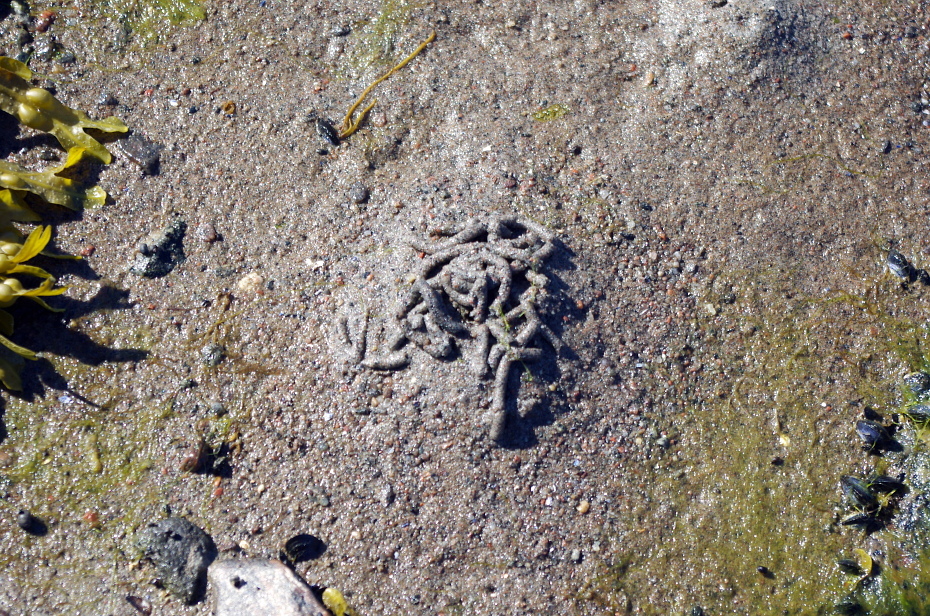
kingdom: Animalia
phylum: Annelida
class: Polychaeta
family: Arenicolidae
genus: Arenicola
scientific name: Arenicola marina
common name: Blow lugworm
